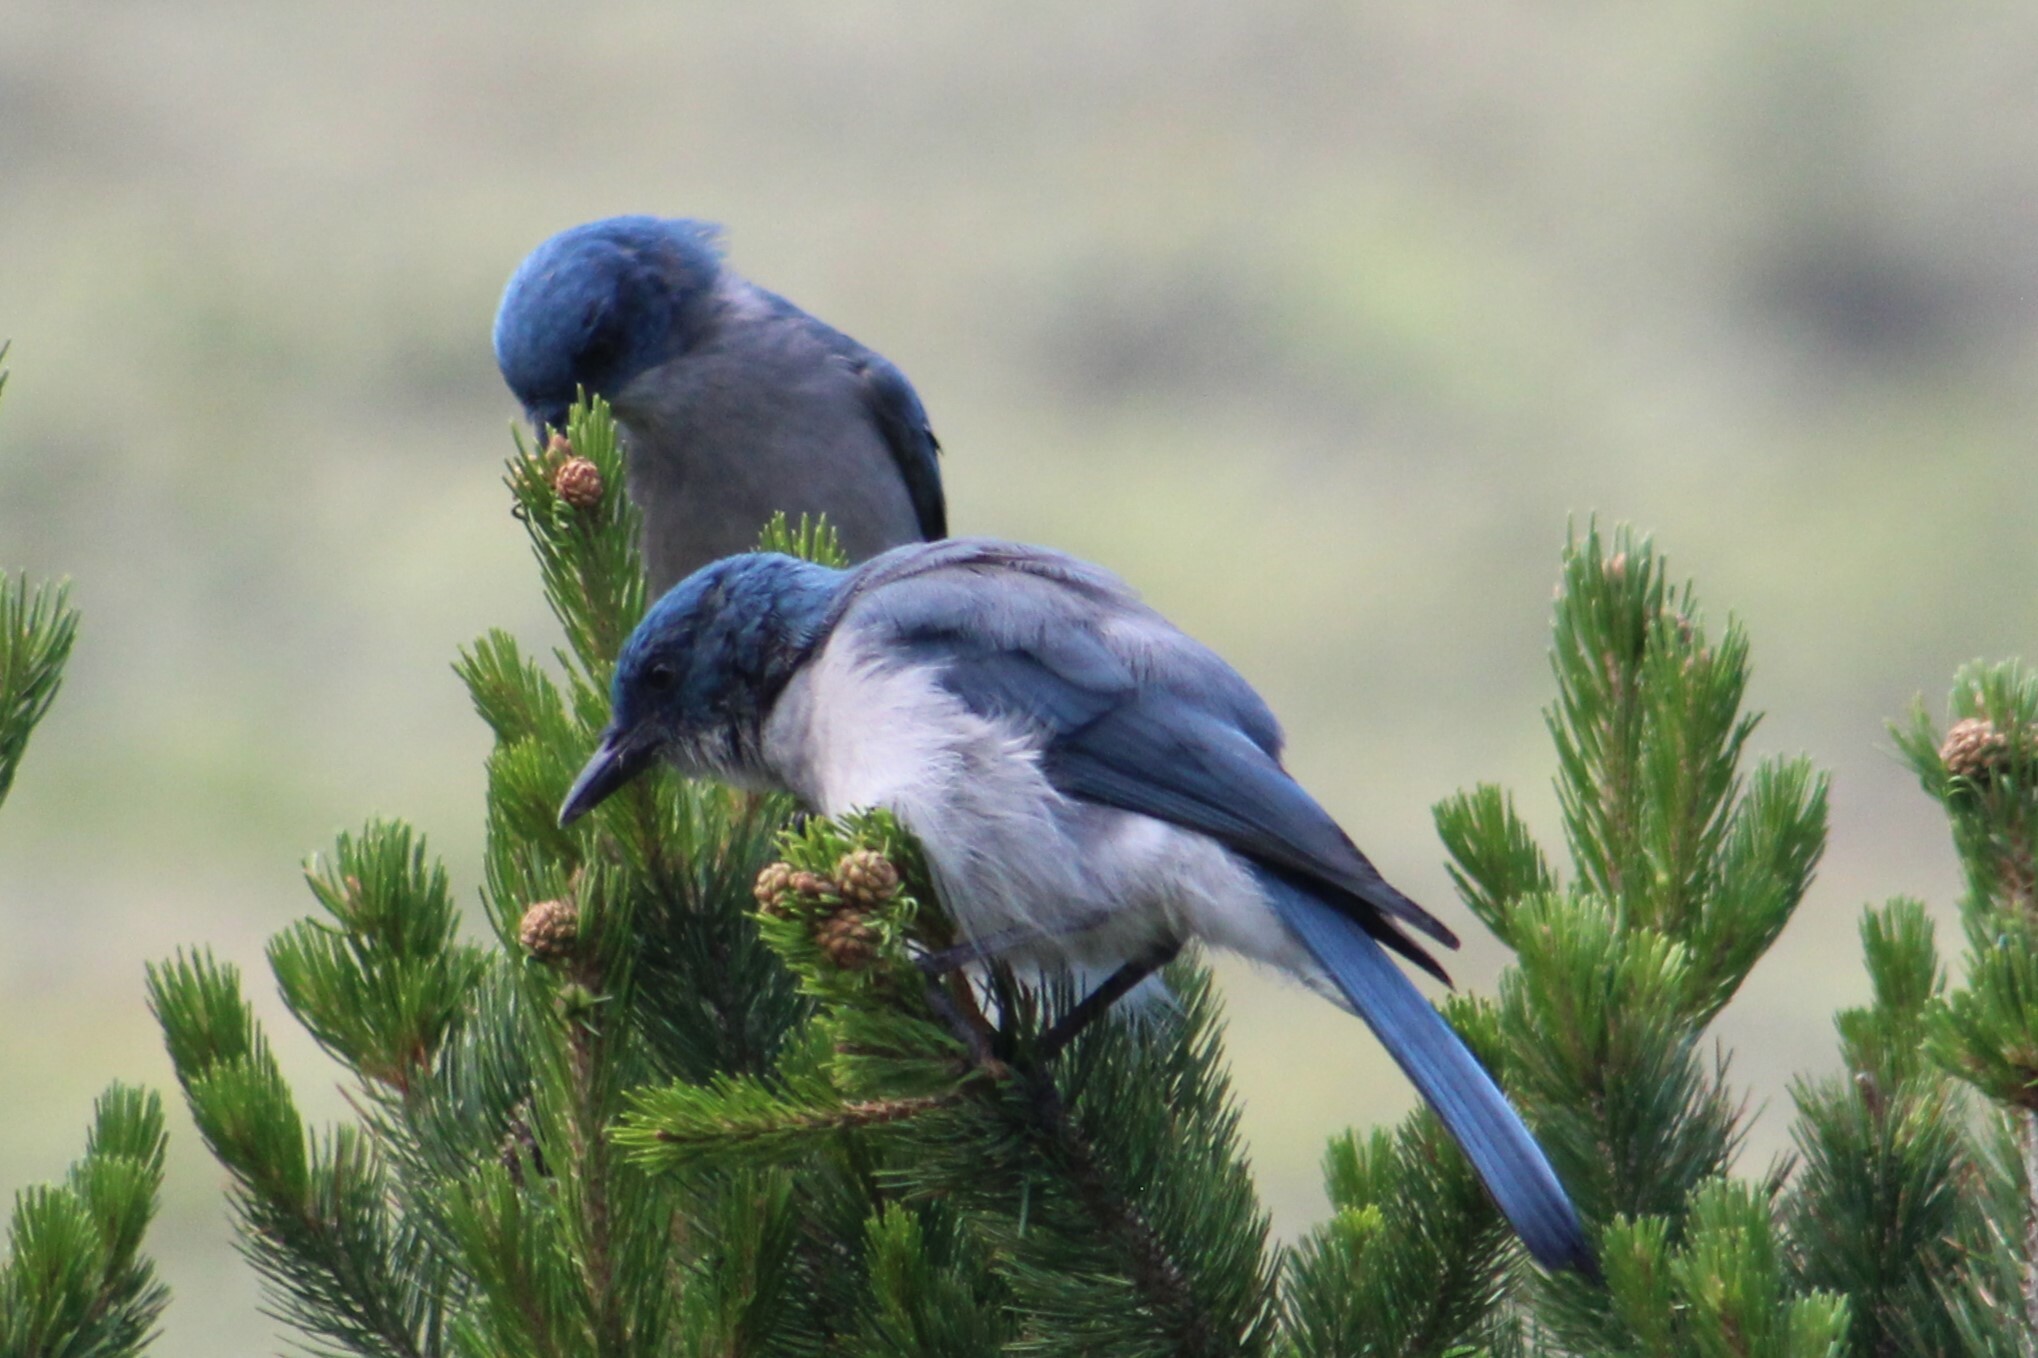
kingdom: Animalia
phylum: Chordata
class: Aves
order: Passeriformes
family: Corvidae
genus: Aphelocoma
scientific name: Aphelocoma wollweberi
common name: Mexican jay
